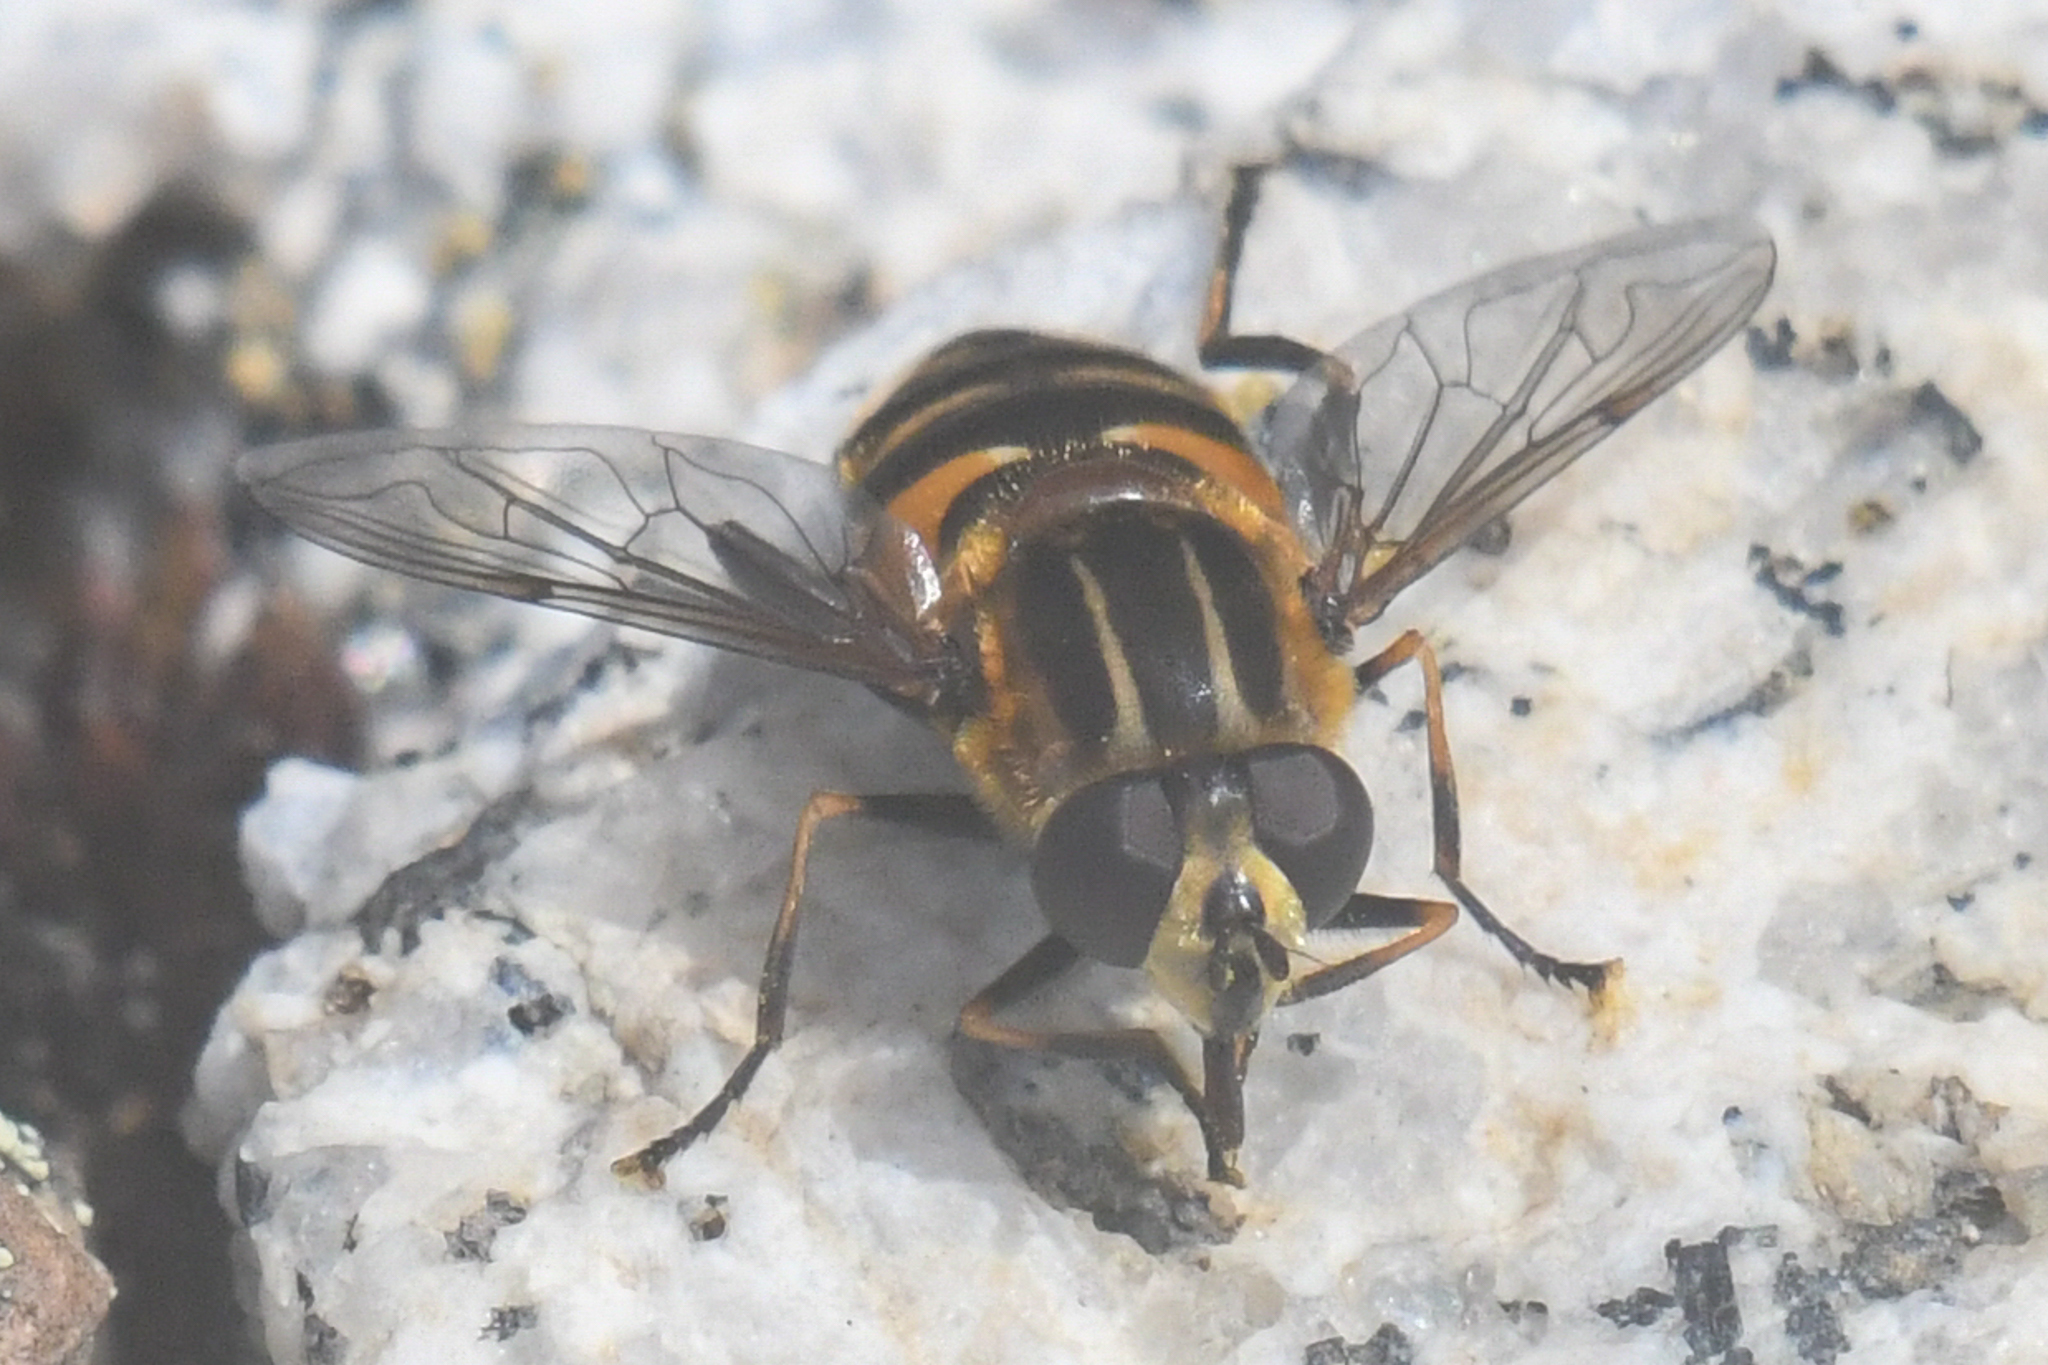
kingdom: Animalia
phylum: Arthropoda
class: Insecta
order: Diptera
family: Syrphidae
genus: Helophilus
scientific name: Helophilus groenlandicus
